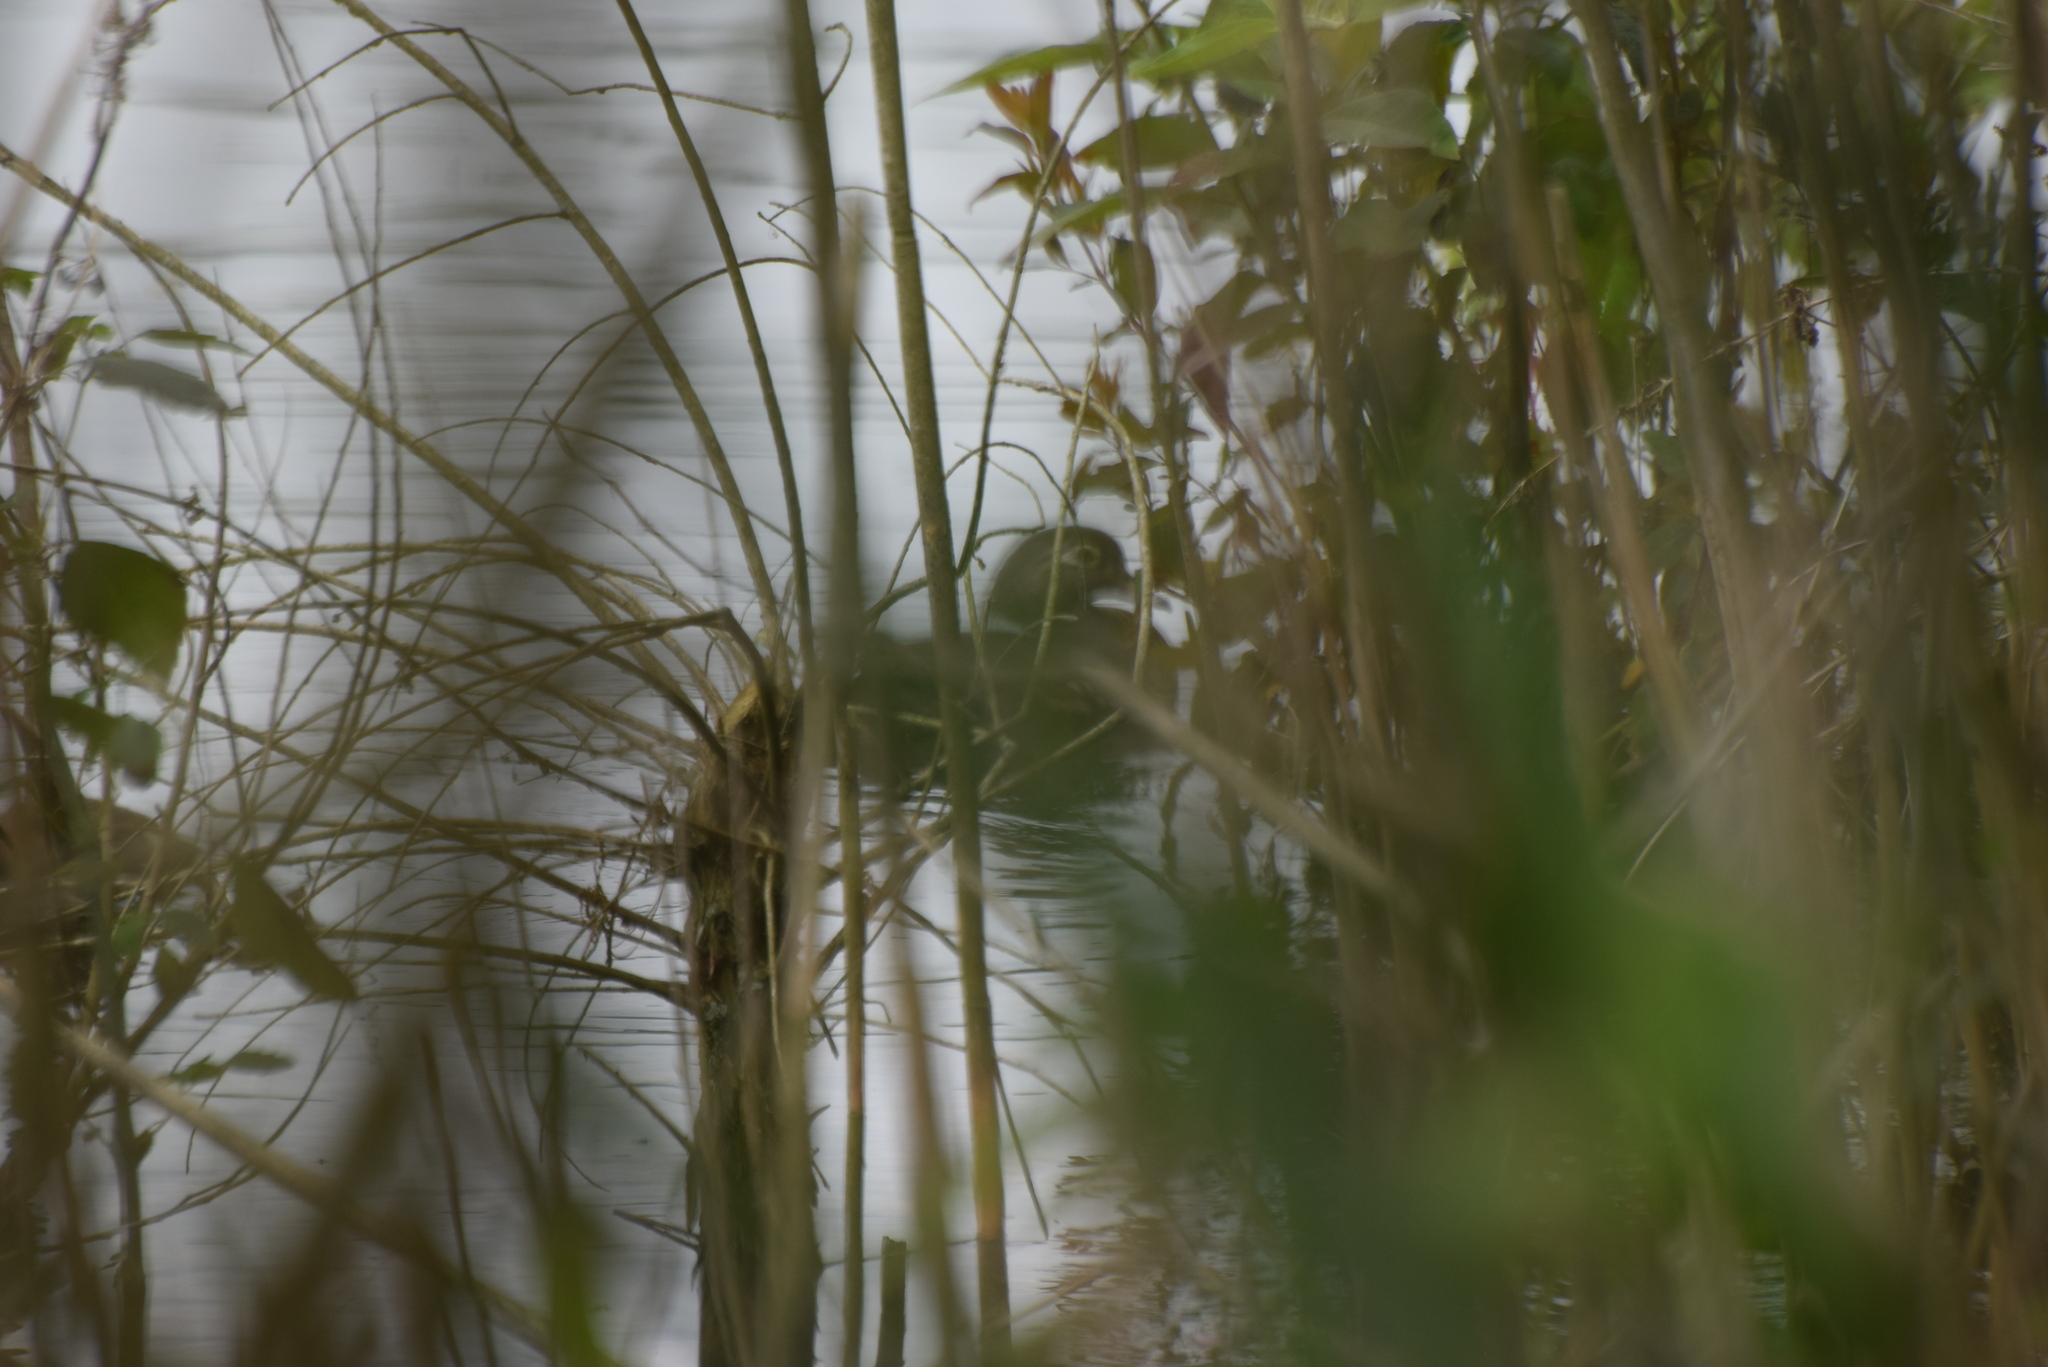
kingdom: Animalia
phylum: Chordata
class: Aves
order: Anseriformes
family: Anatidae
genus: Aix
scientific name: Aix sponsa
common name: Wood duck
